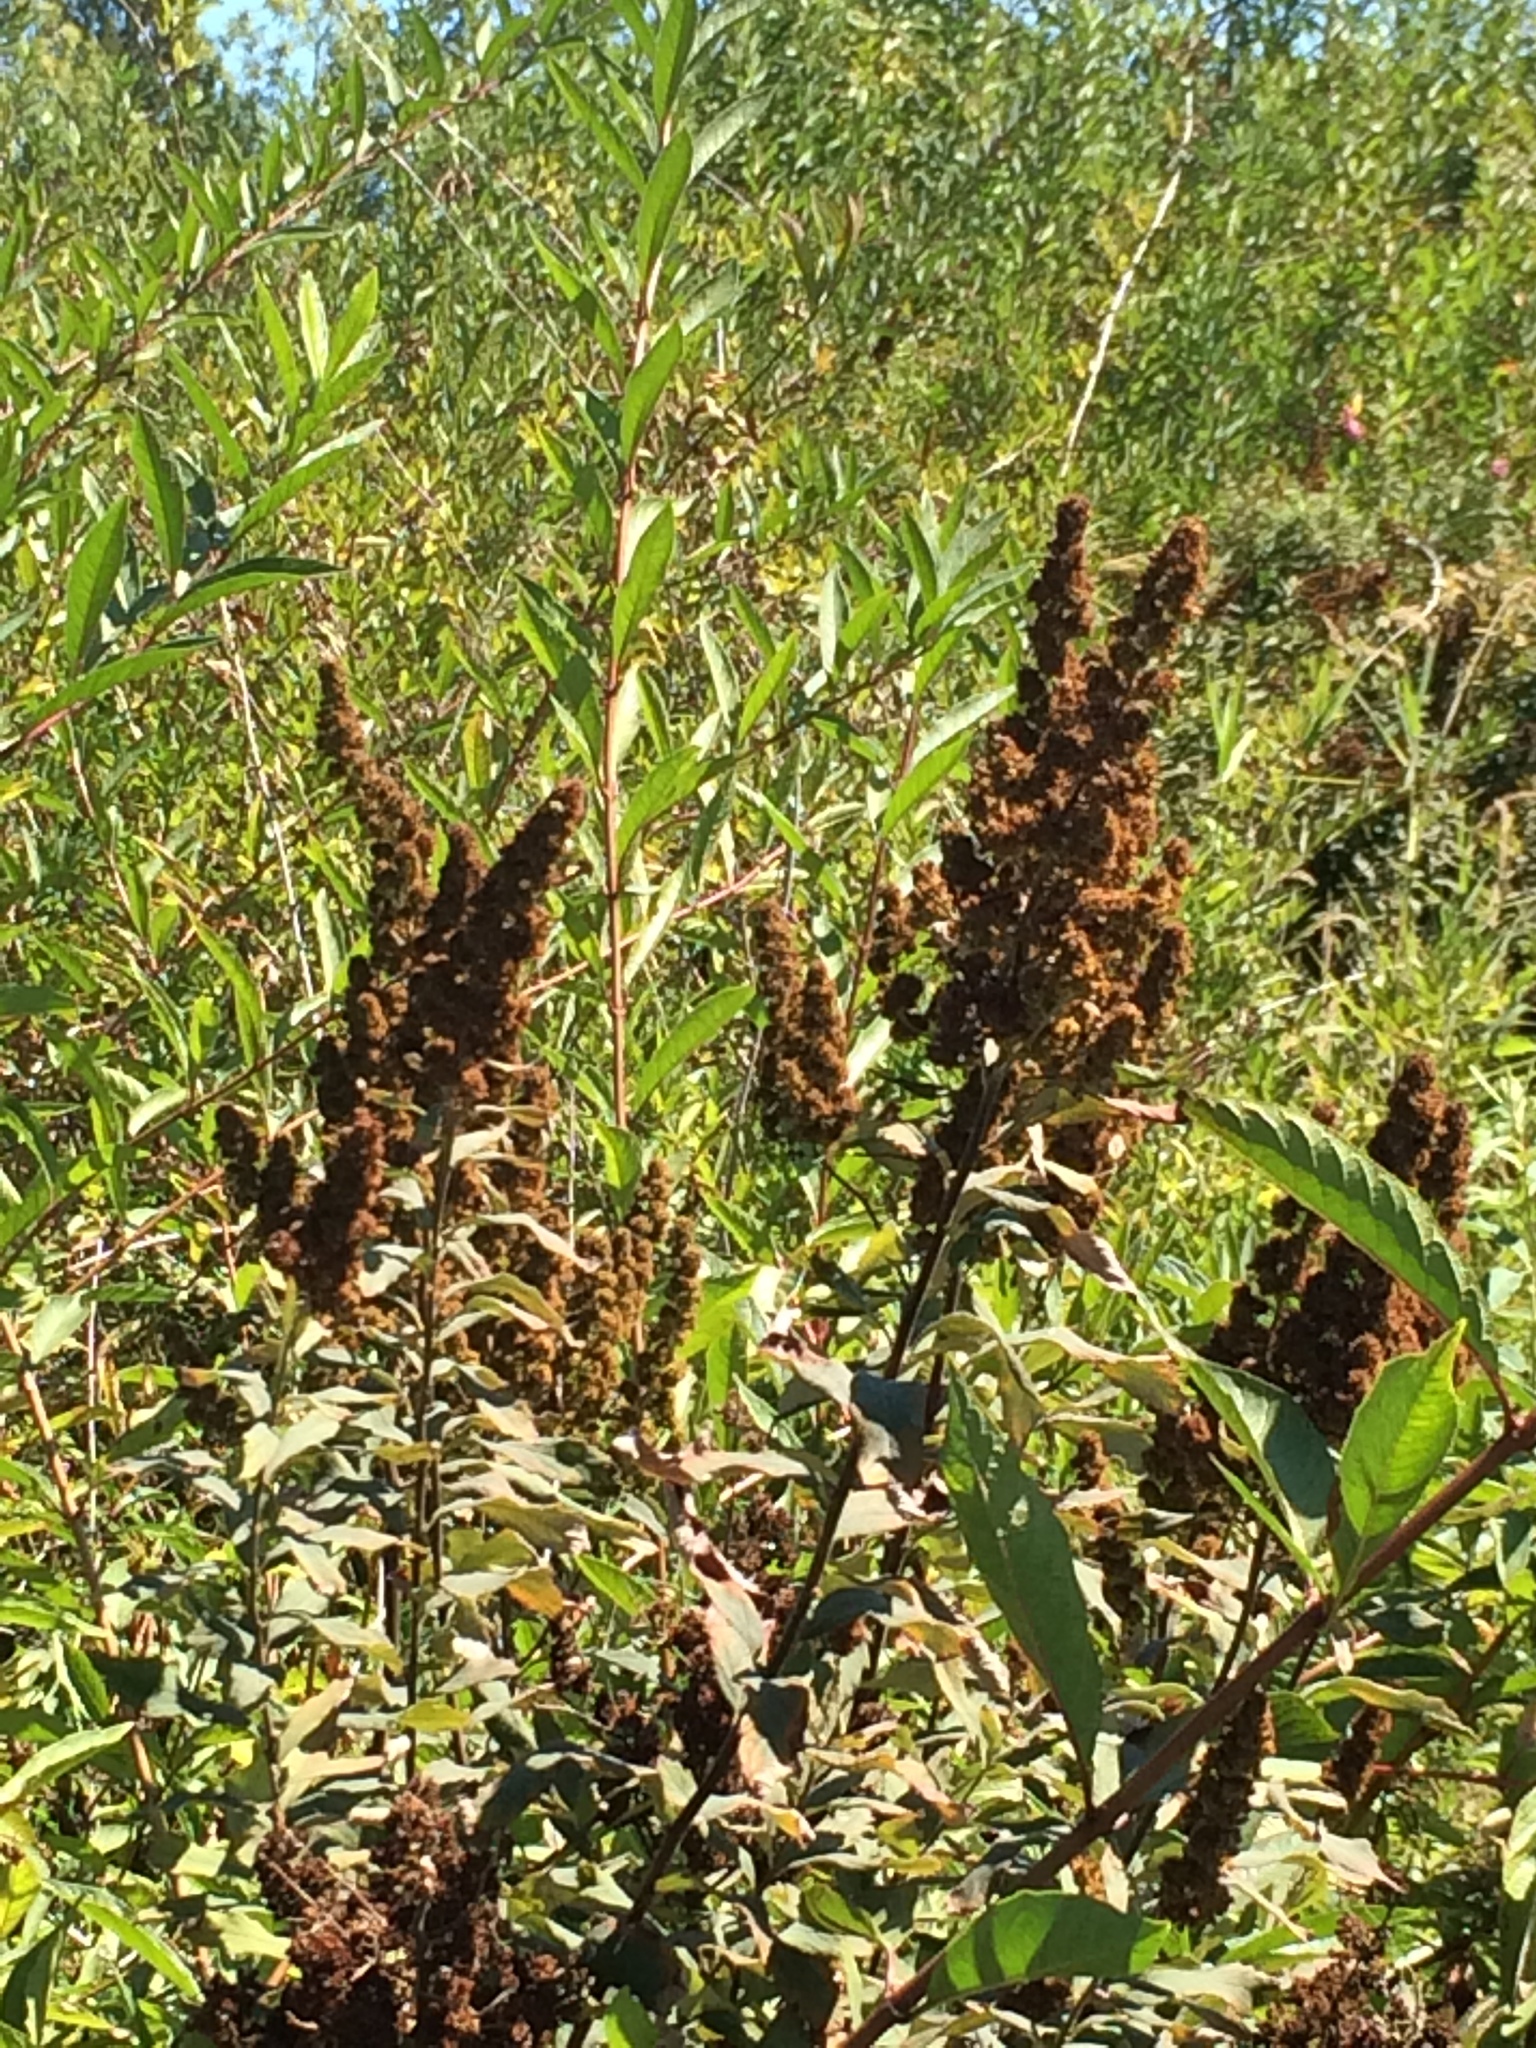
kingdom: Plantae
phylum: Tracheophyta
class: Magnoliopsida
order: Rosales
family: Rosaceae
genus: Spiraea
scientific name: Spiraea douglasii
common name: Steeplebush
